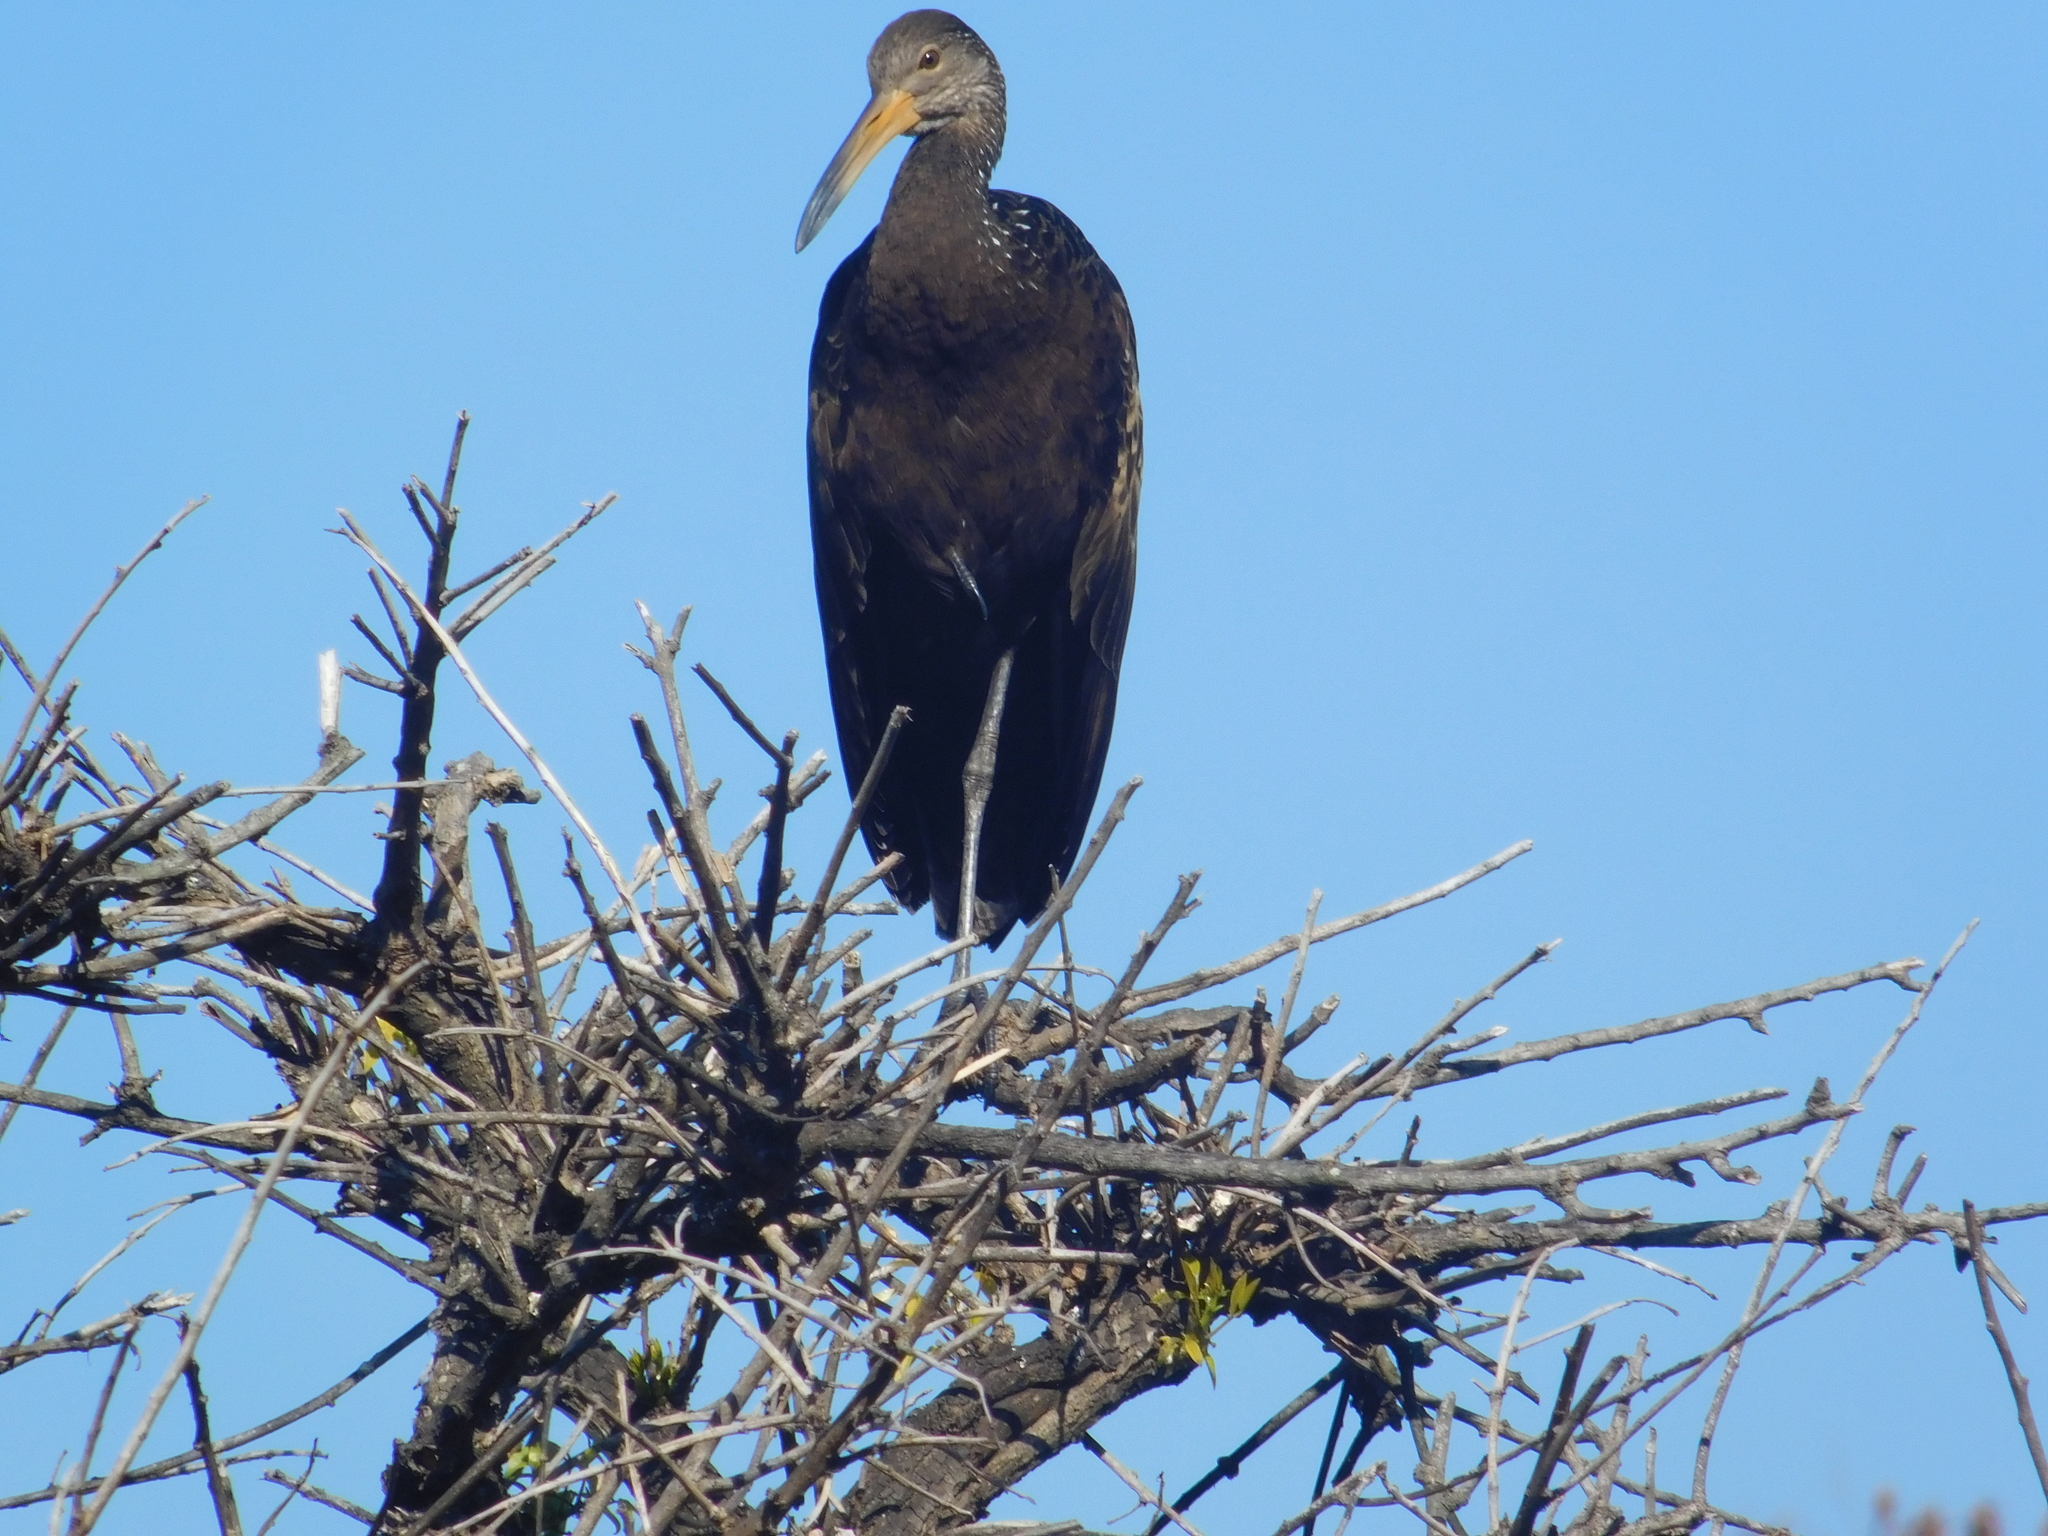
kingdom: Animalia
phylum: Chordata
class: Aves
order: Gruiformes
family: Aramidae
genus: Aramus
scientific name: Aramus guarauna
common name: Limpkin
